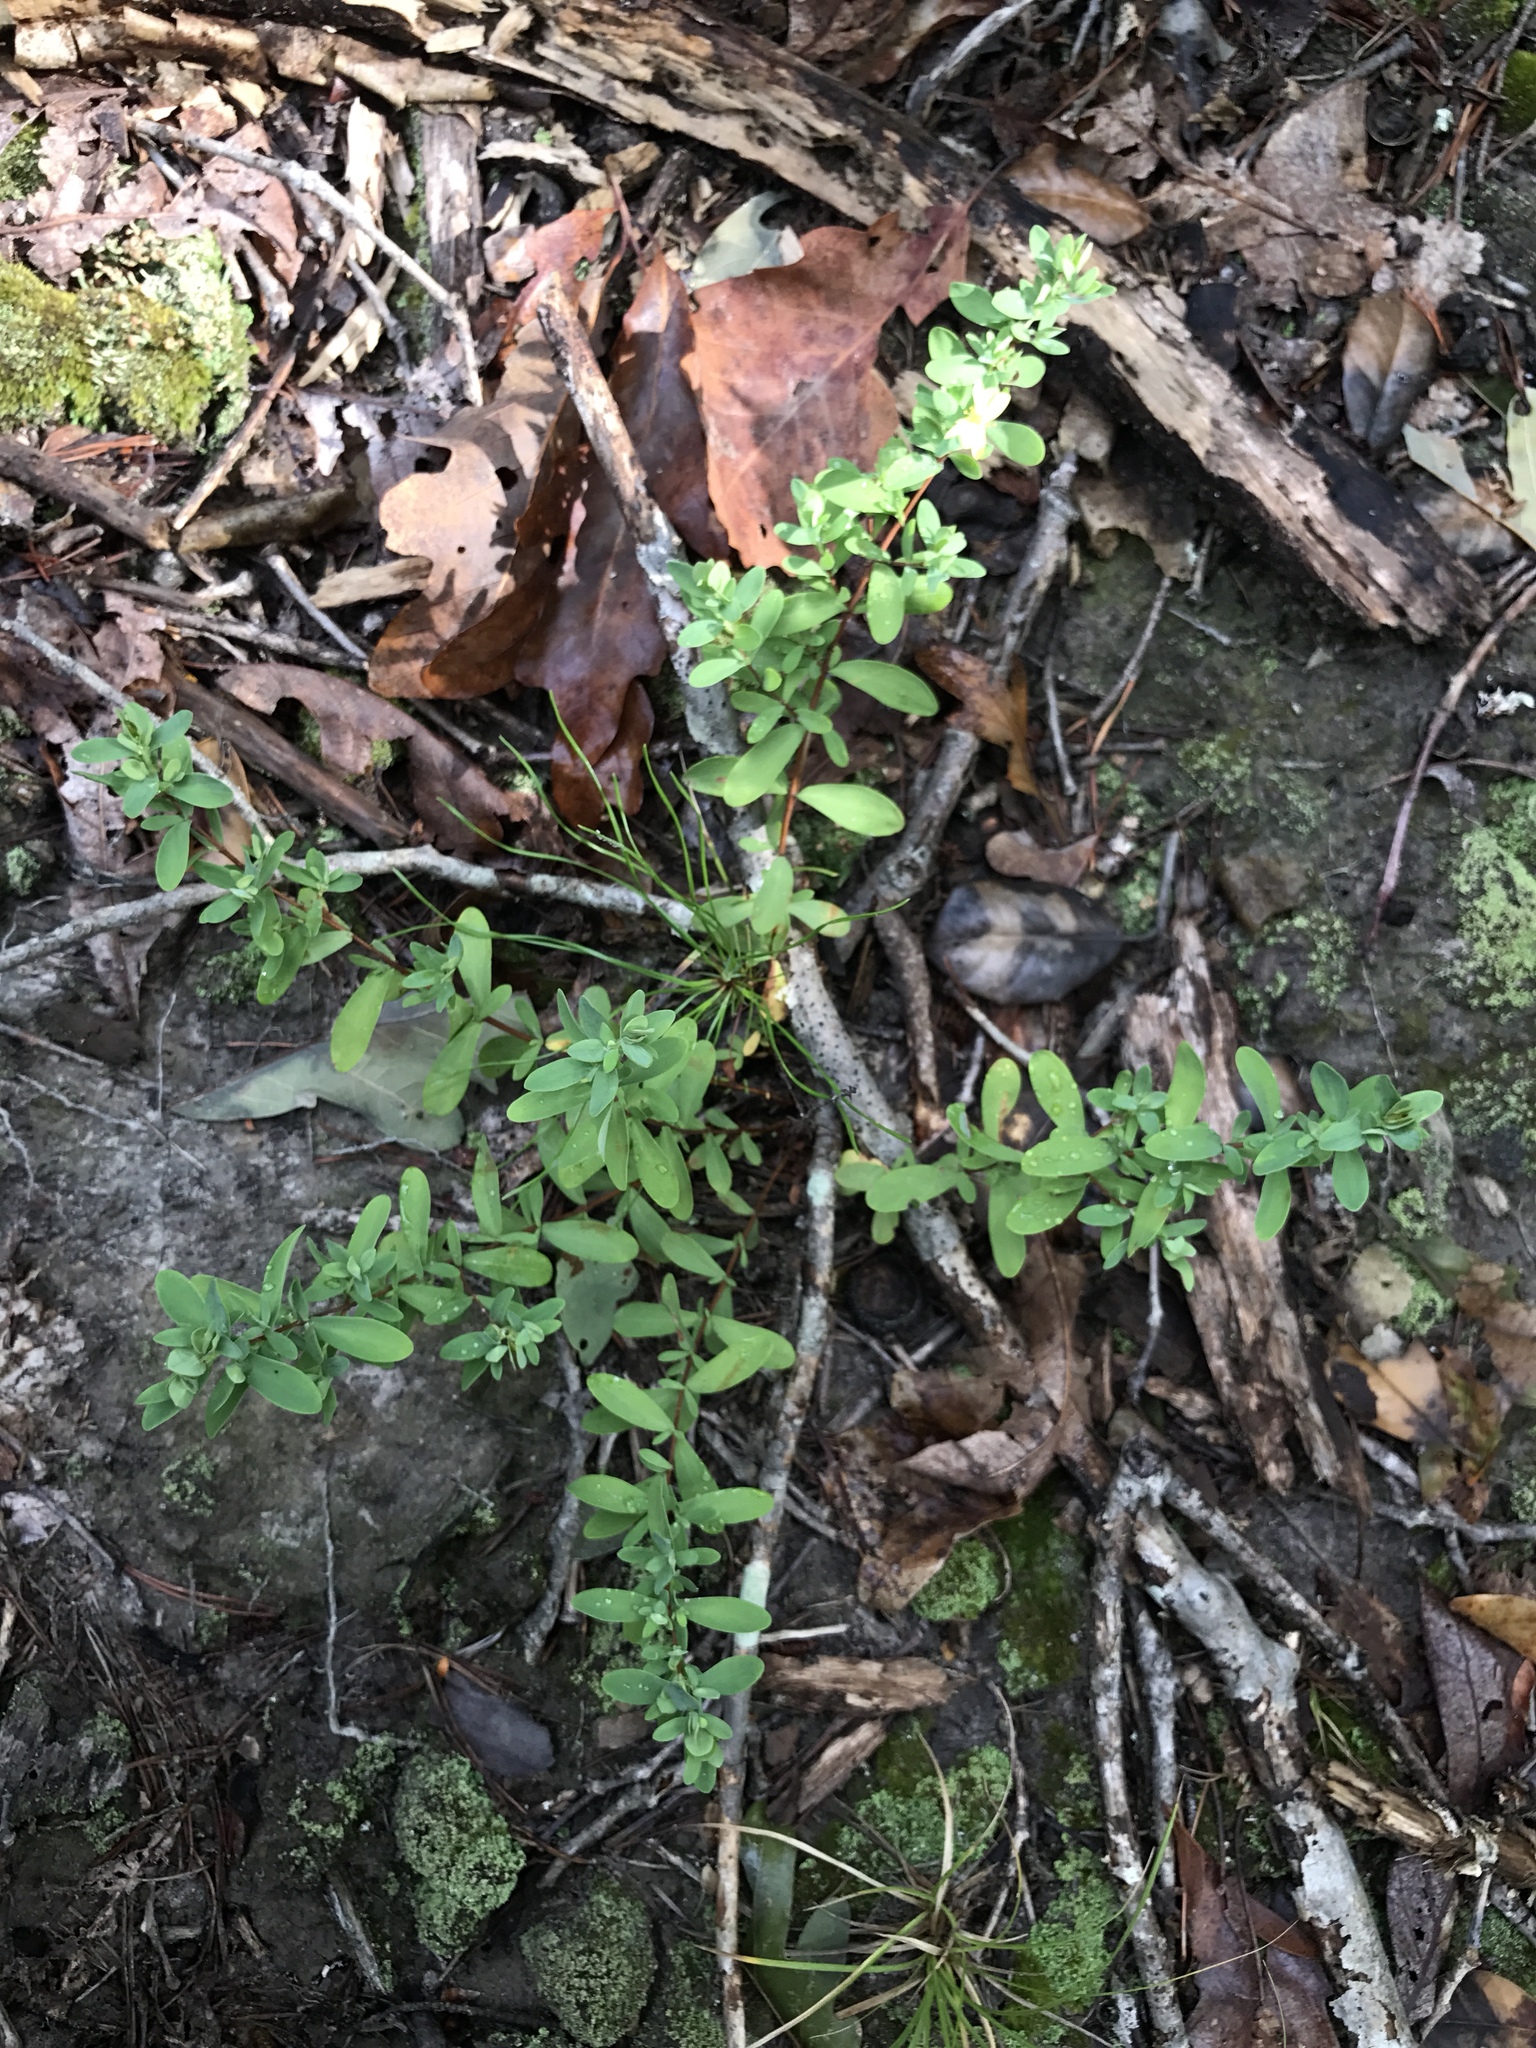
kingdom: Plantae
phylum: Tracheophyta
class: Magnoliopsida
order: Malpighiales
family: Hypericaceae
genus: Hypericum
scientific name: Hypericum hypericoides
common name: St. andrew's cross
